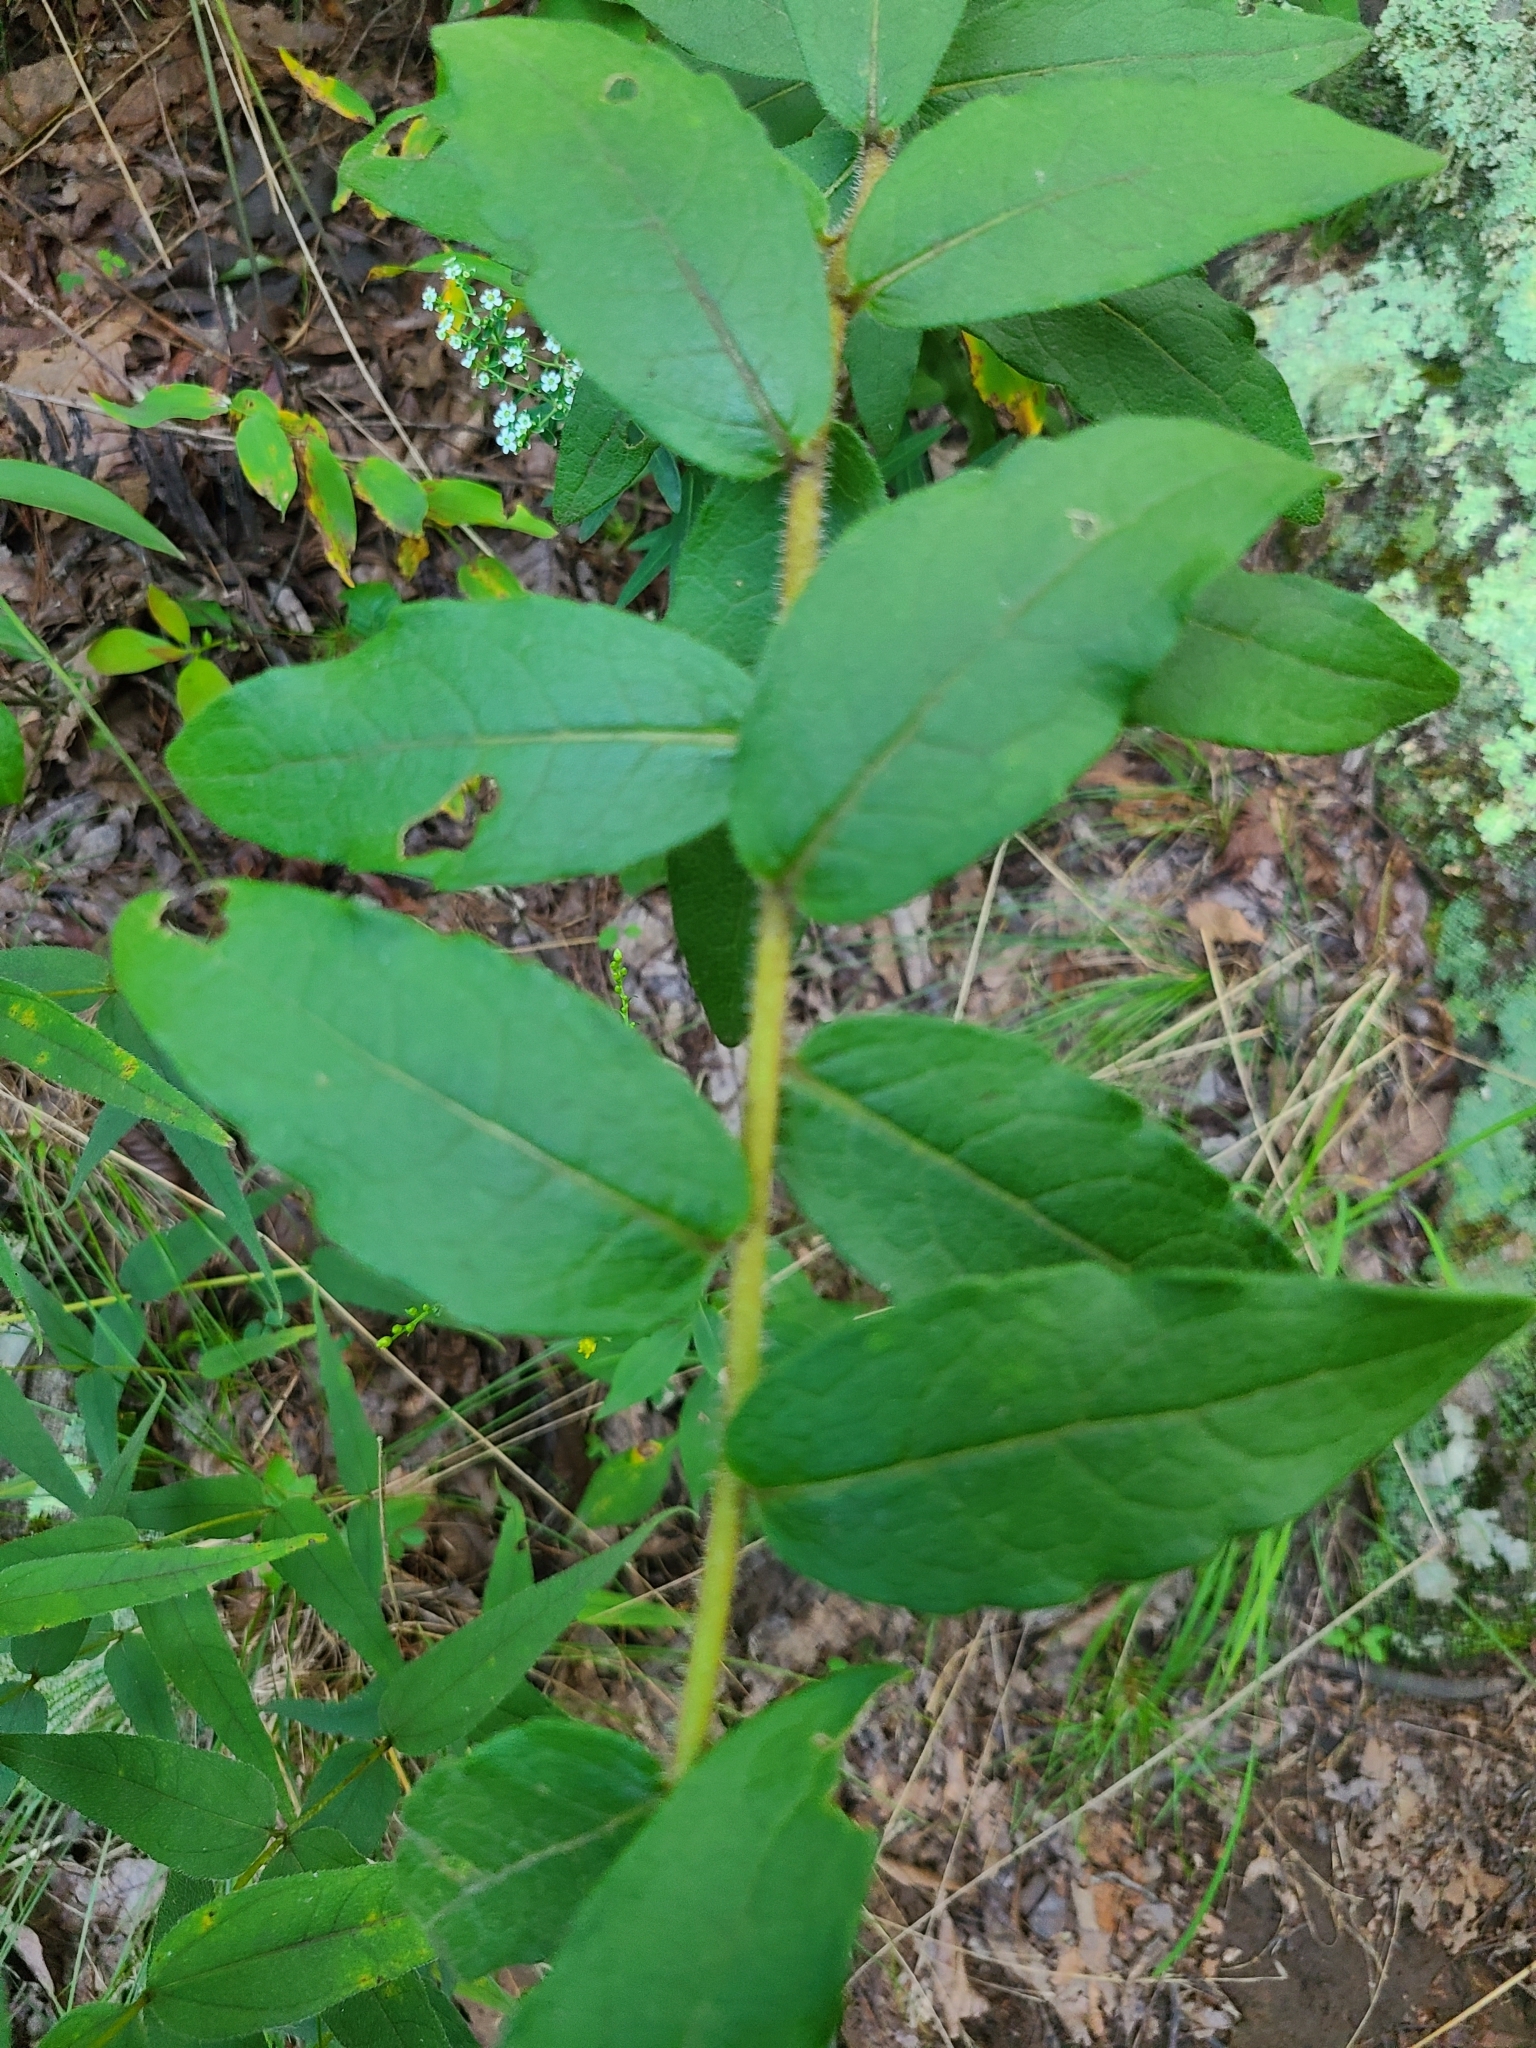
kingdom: Plantae
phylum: Tracheophyta
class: Magnoliopsida
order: Asterales
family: Asteraceae
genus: Silphium
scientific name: Silphium asperrimum
